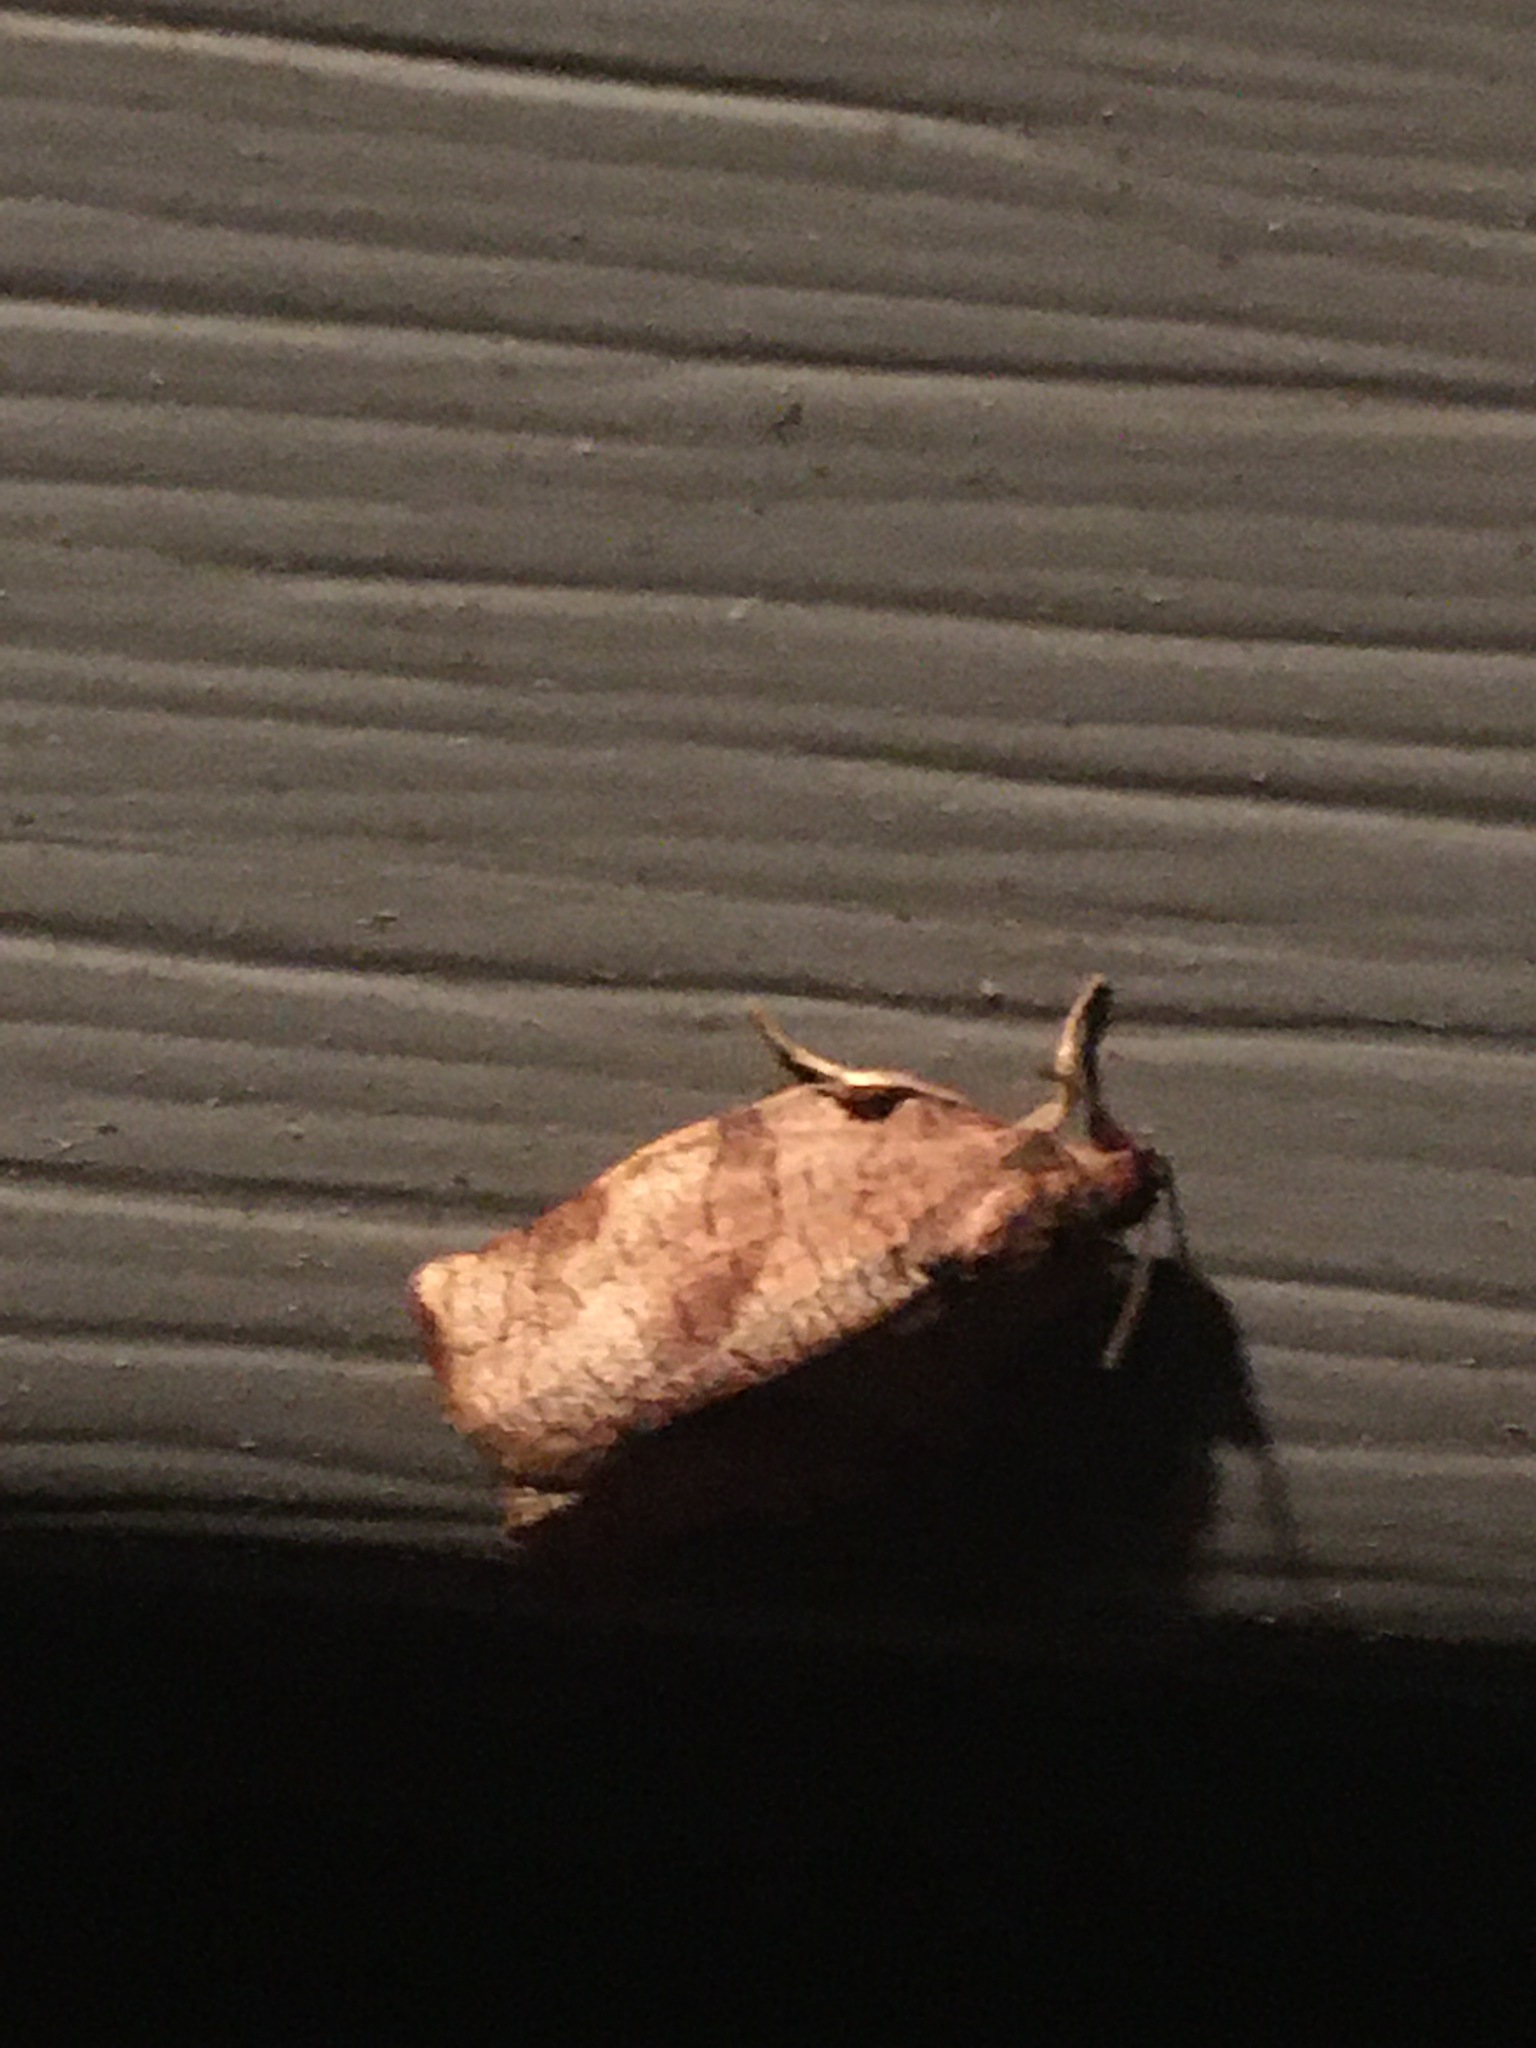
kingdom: Animalia
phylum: Arthropoda
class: Insecta
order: Lepidoptera
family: Tortricidae
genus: Choristoneura
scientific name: Choristoneura rosaceana
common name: Oblique-banded leafroller moth
